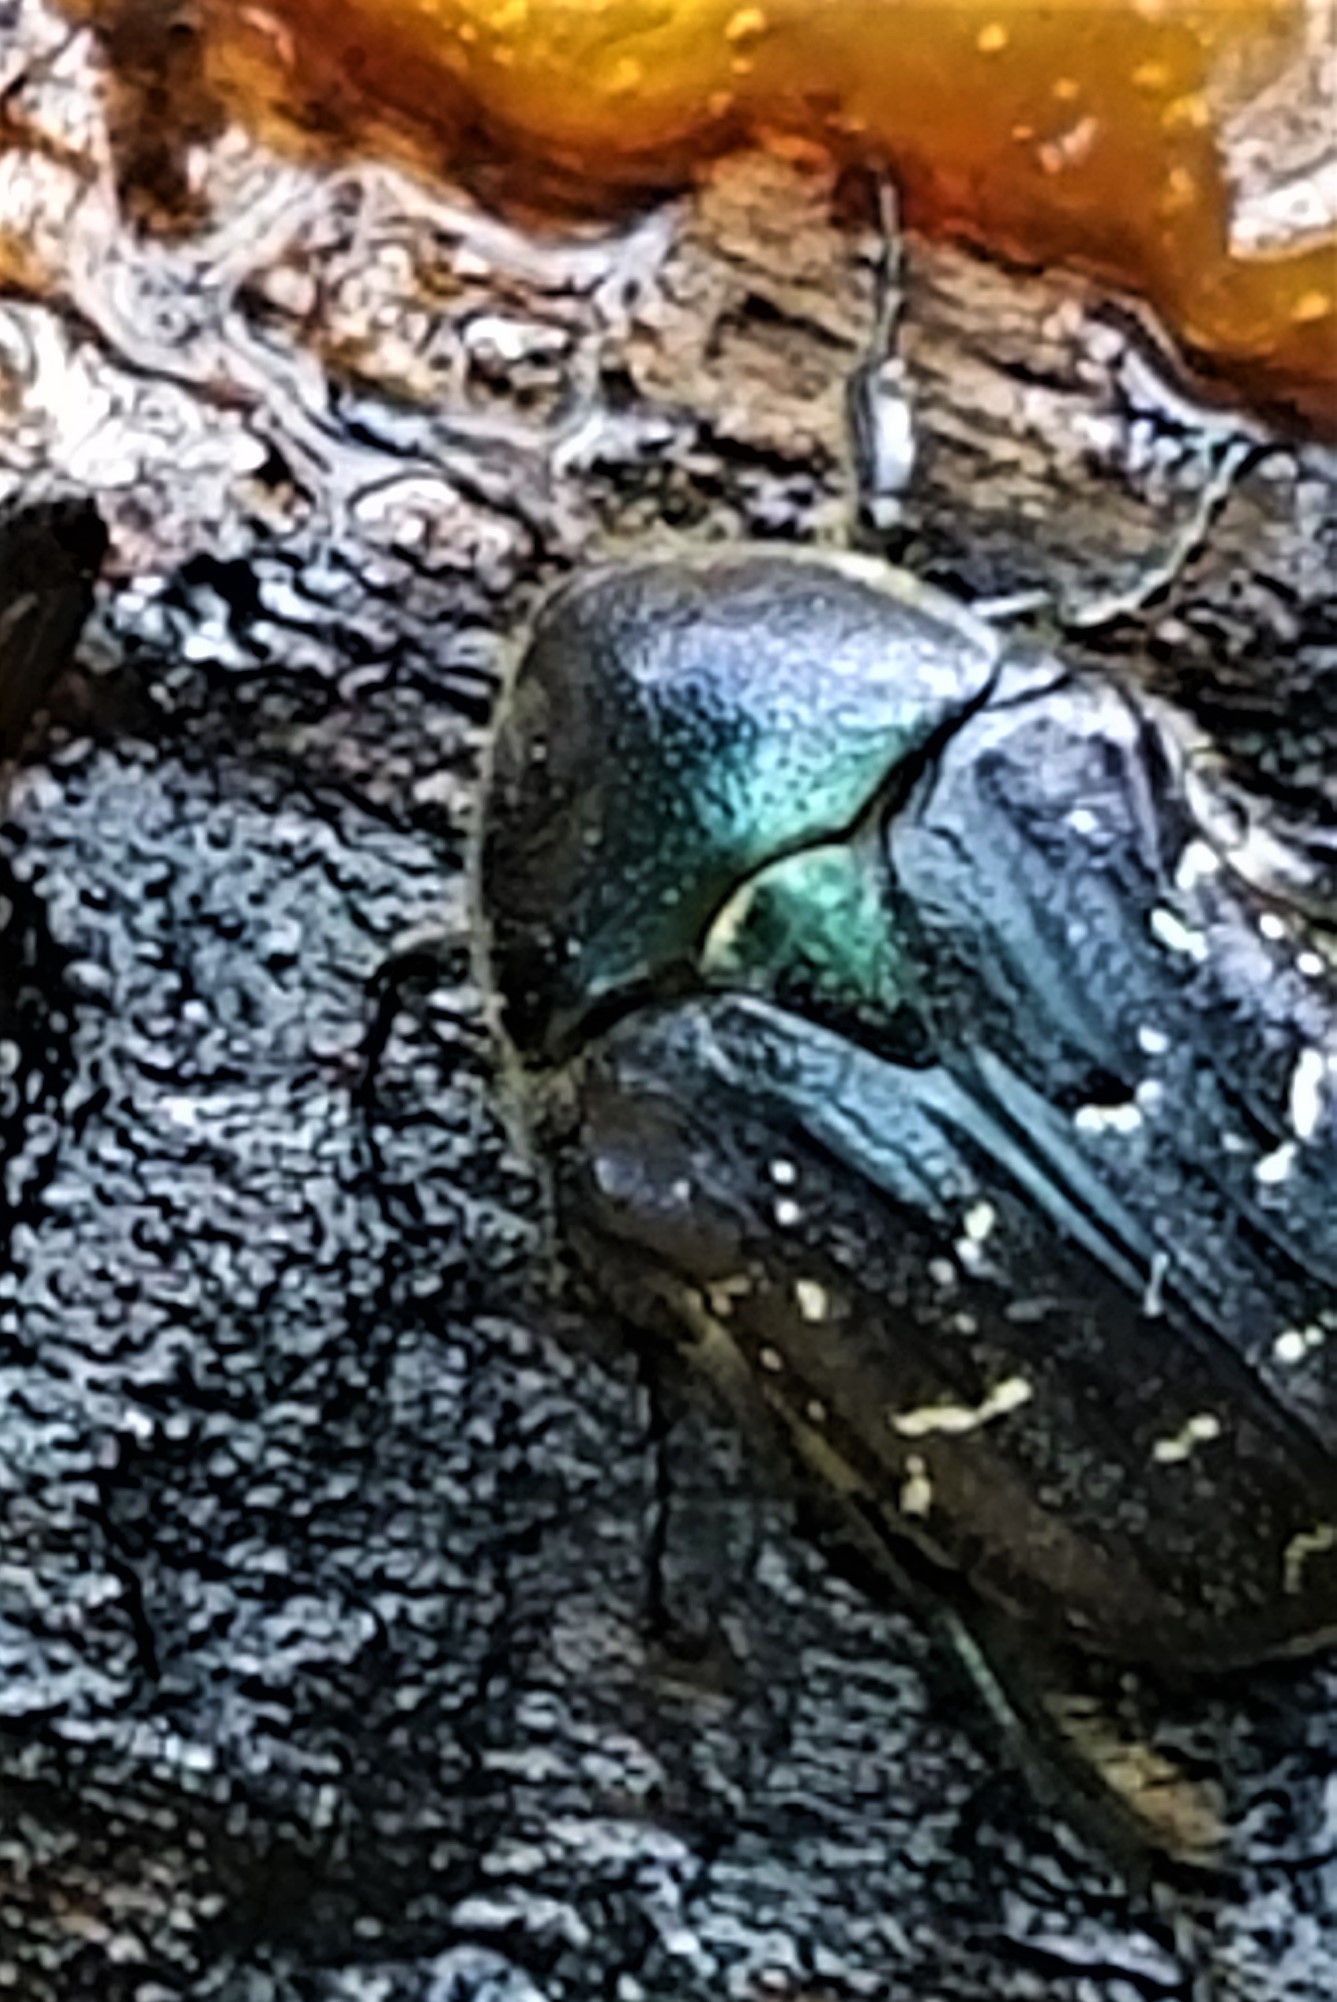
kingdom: Animalia
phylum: Arthropoda
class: Insecta
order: Coleoptera
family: Scarabaeidae
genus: Euphoria
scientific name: Euphoria sepulcralis
